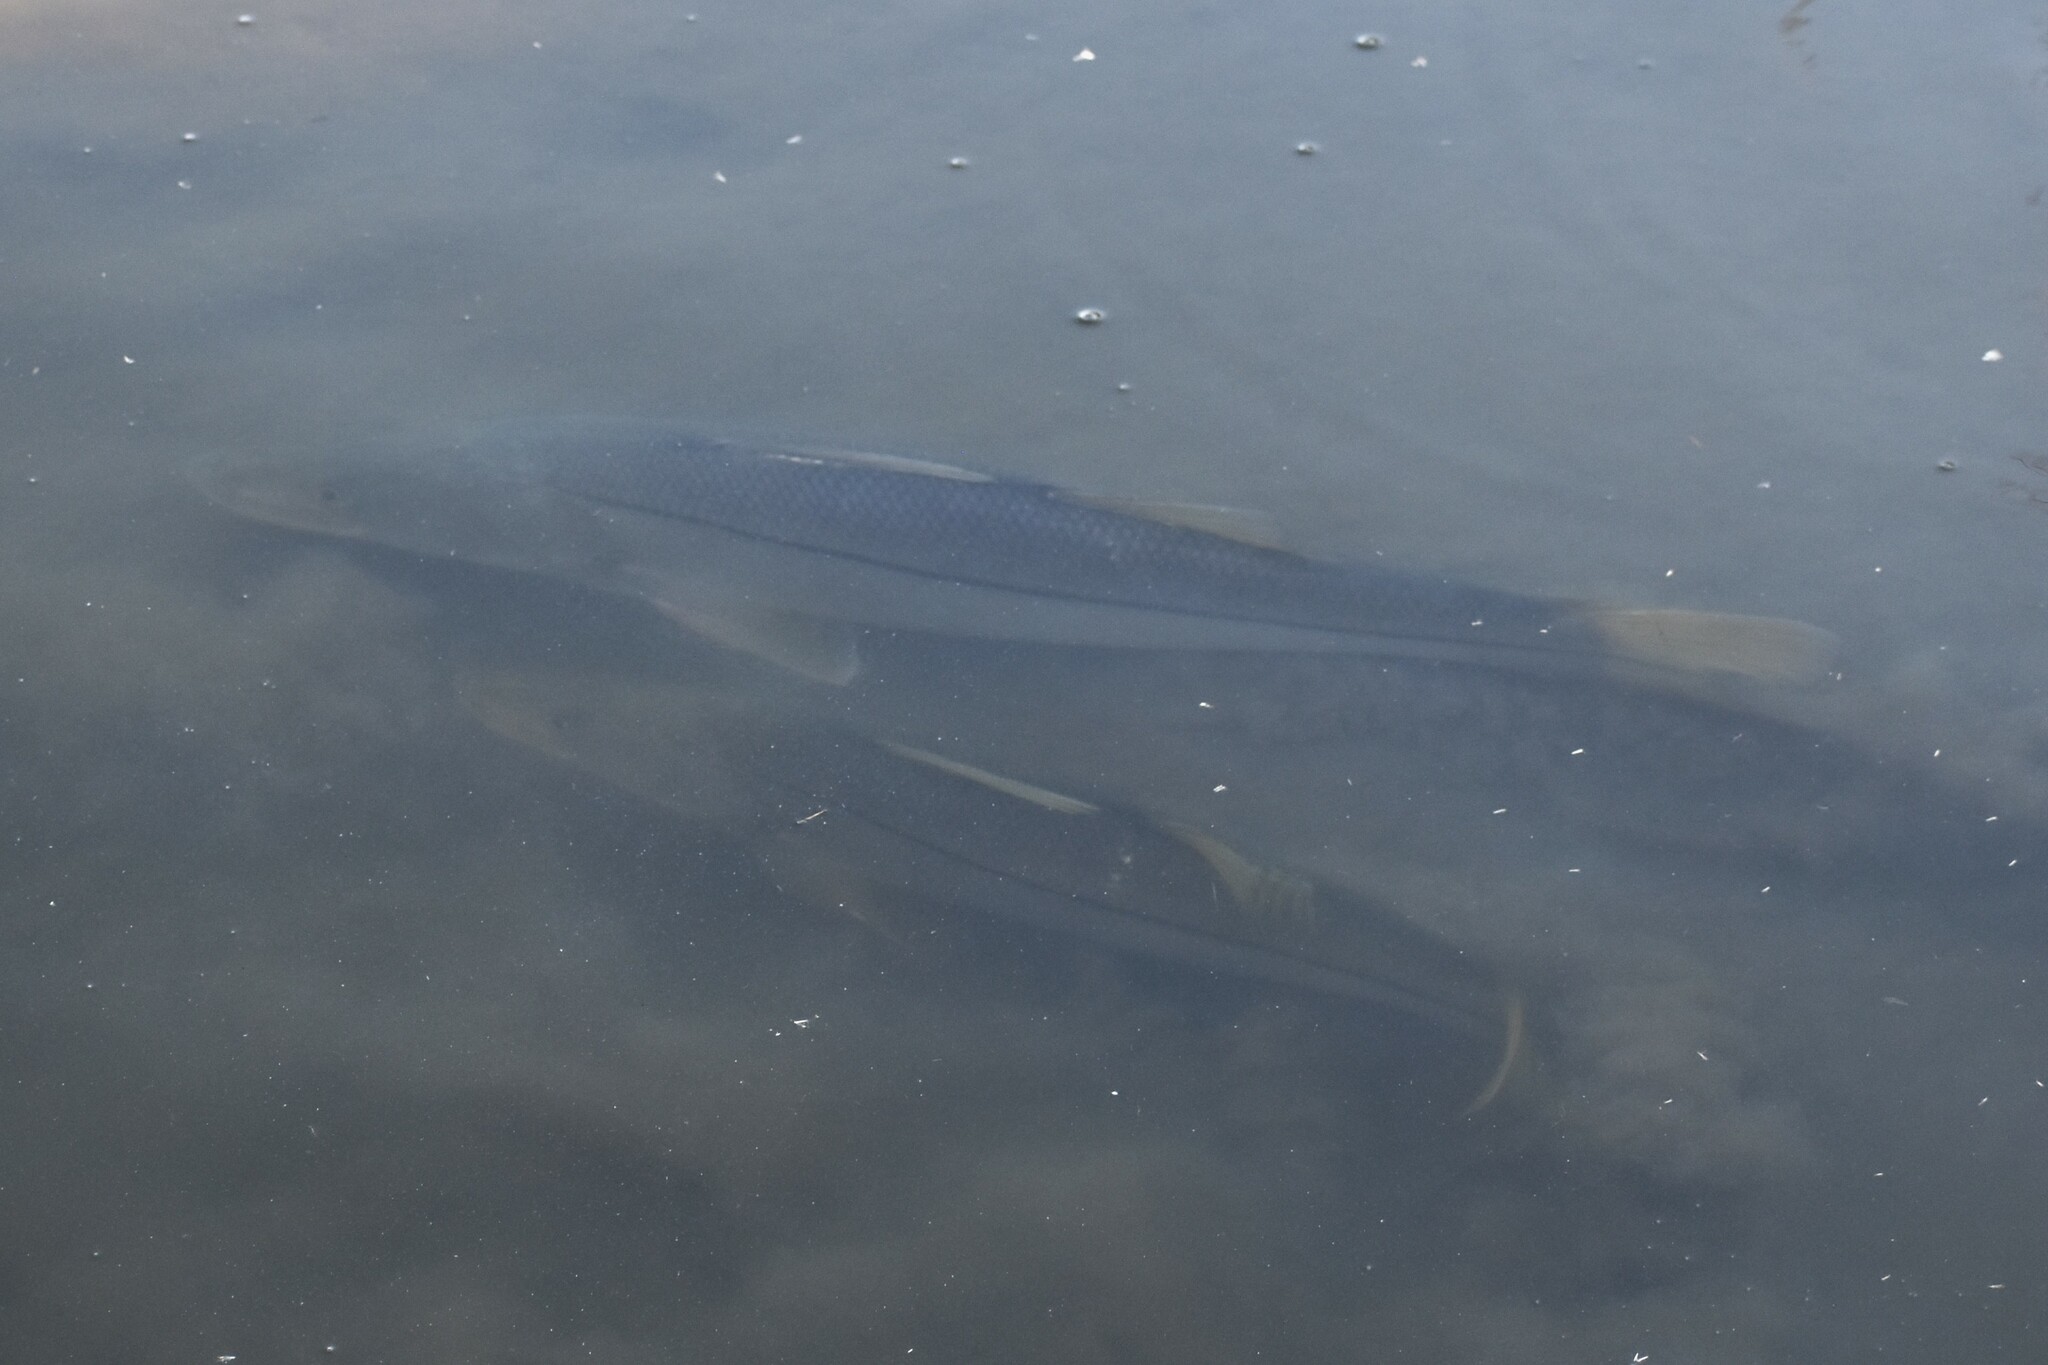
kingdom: Animalia
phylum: Chordata
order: Perciformes
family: Centropomidae
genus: Centropomus
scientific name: Centropomus undecimalis
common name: Snook
